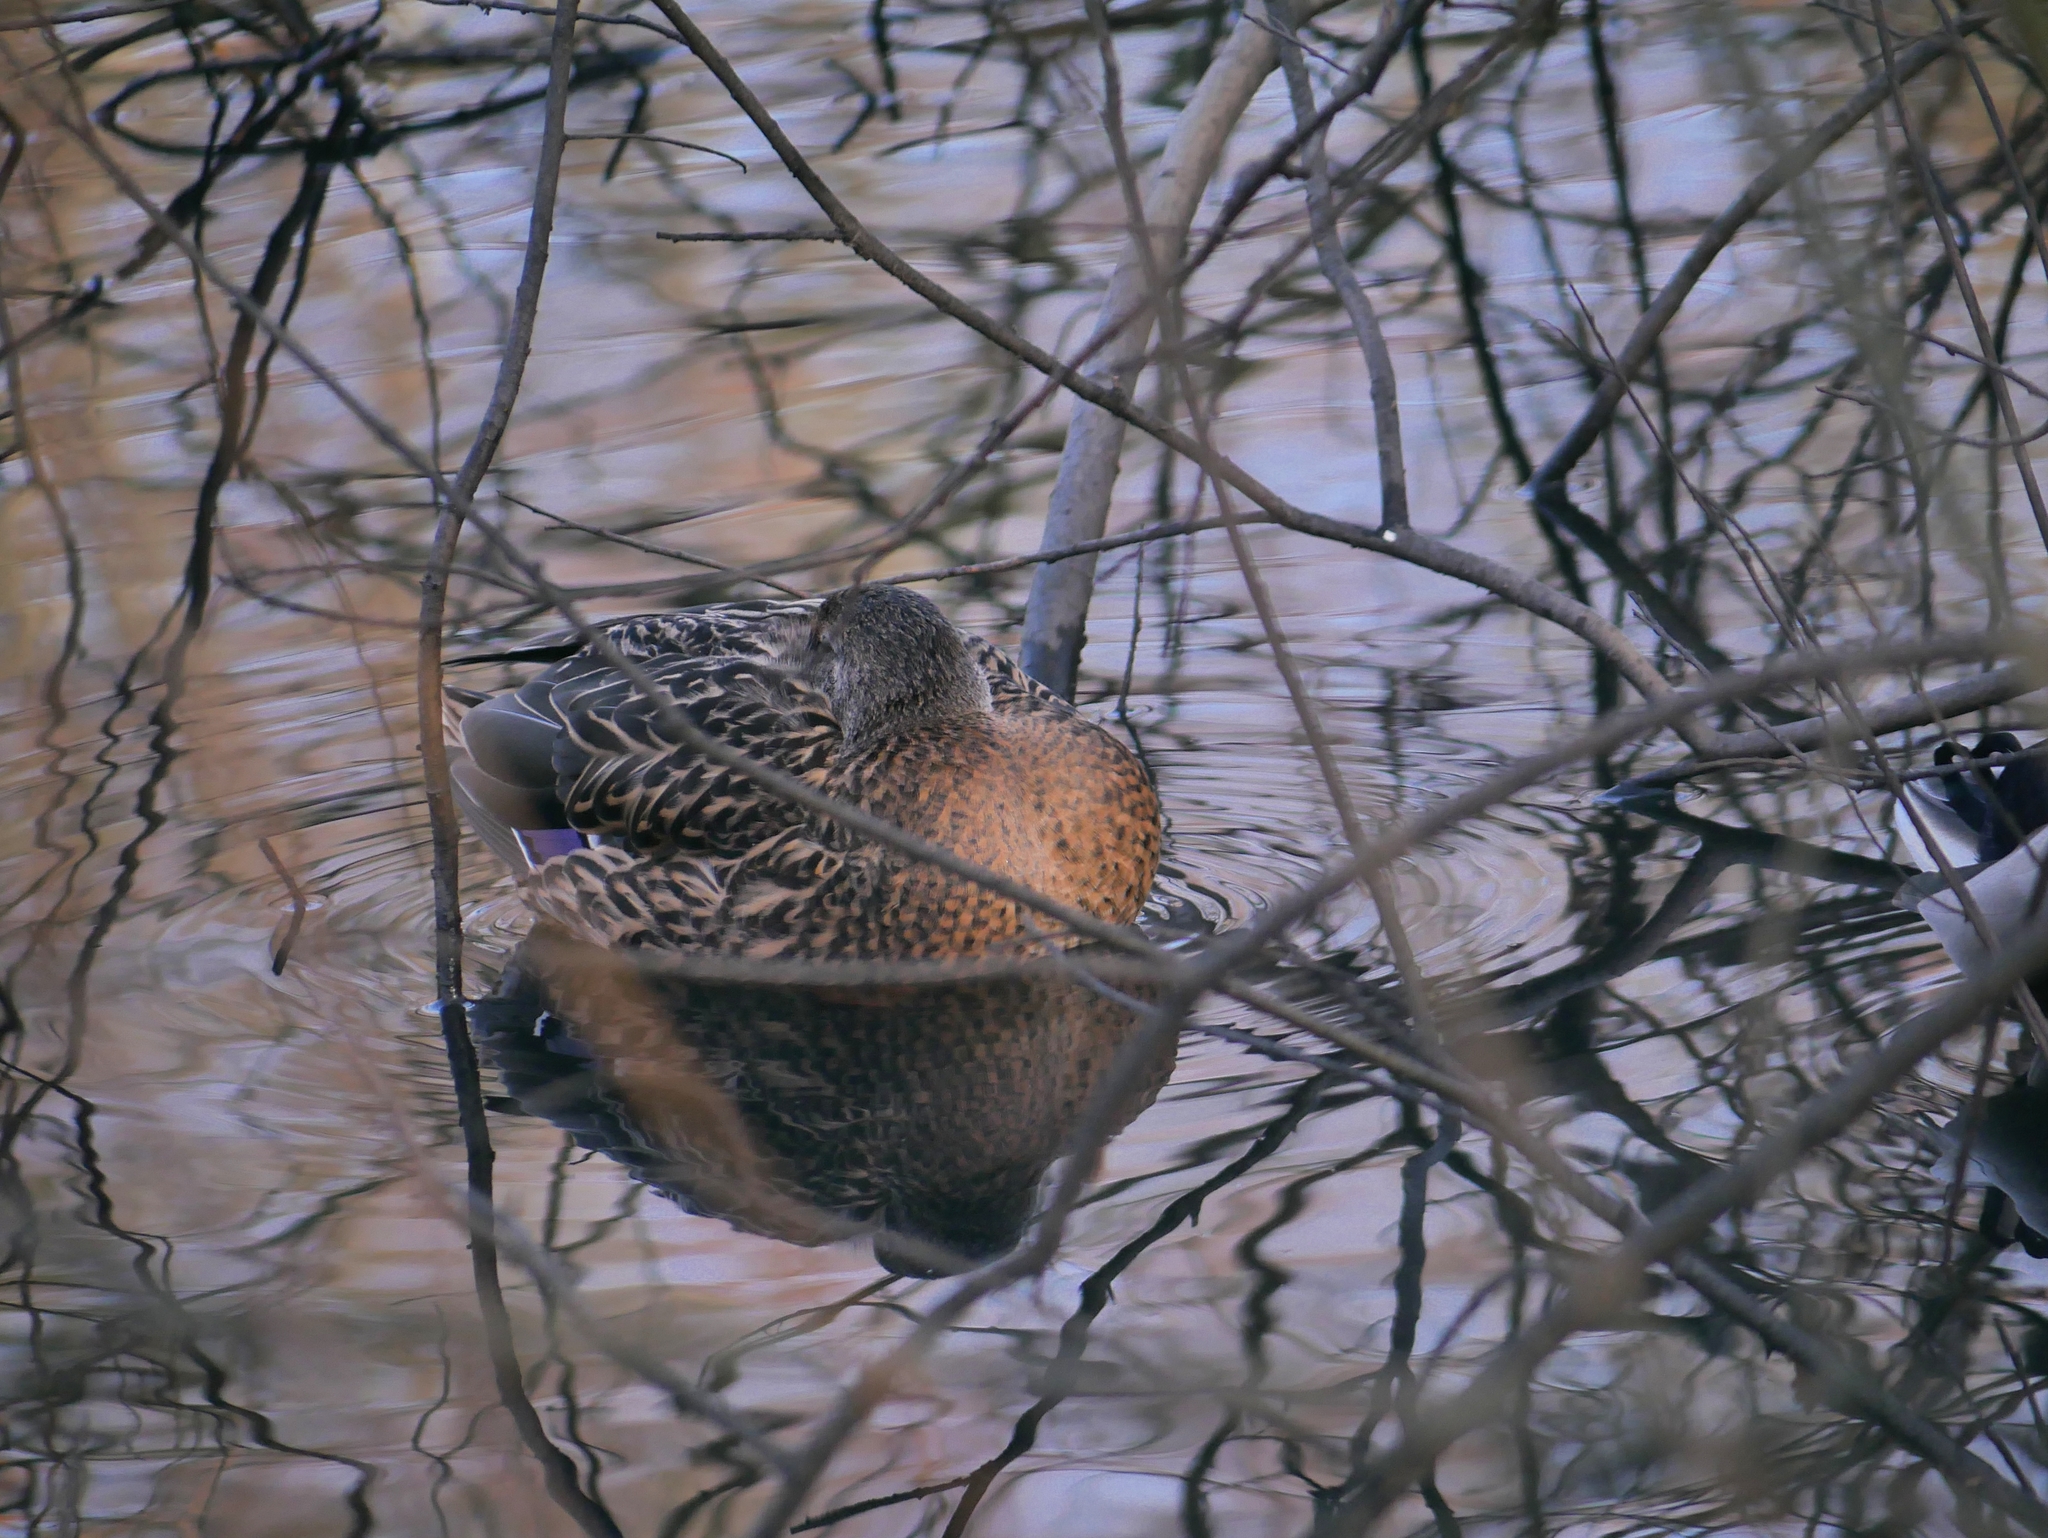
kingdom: Animalia
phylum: Chordata
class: Aves
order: Anseriformes
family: Anatidae
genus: Anas
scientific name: Anas platyrhynchos
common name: Mallard
